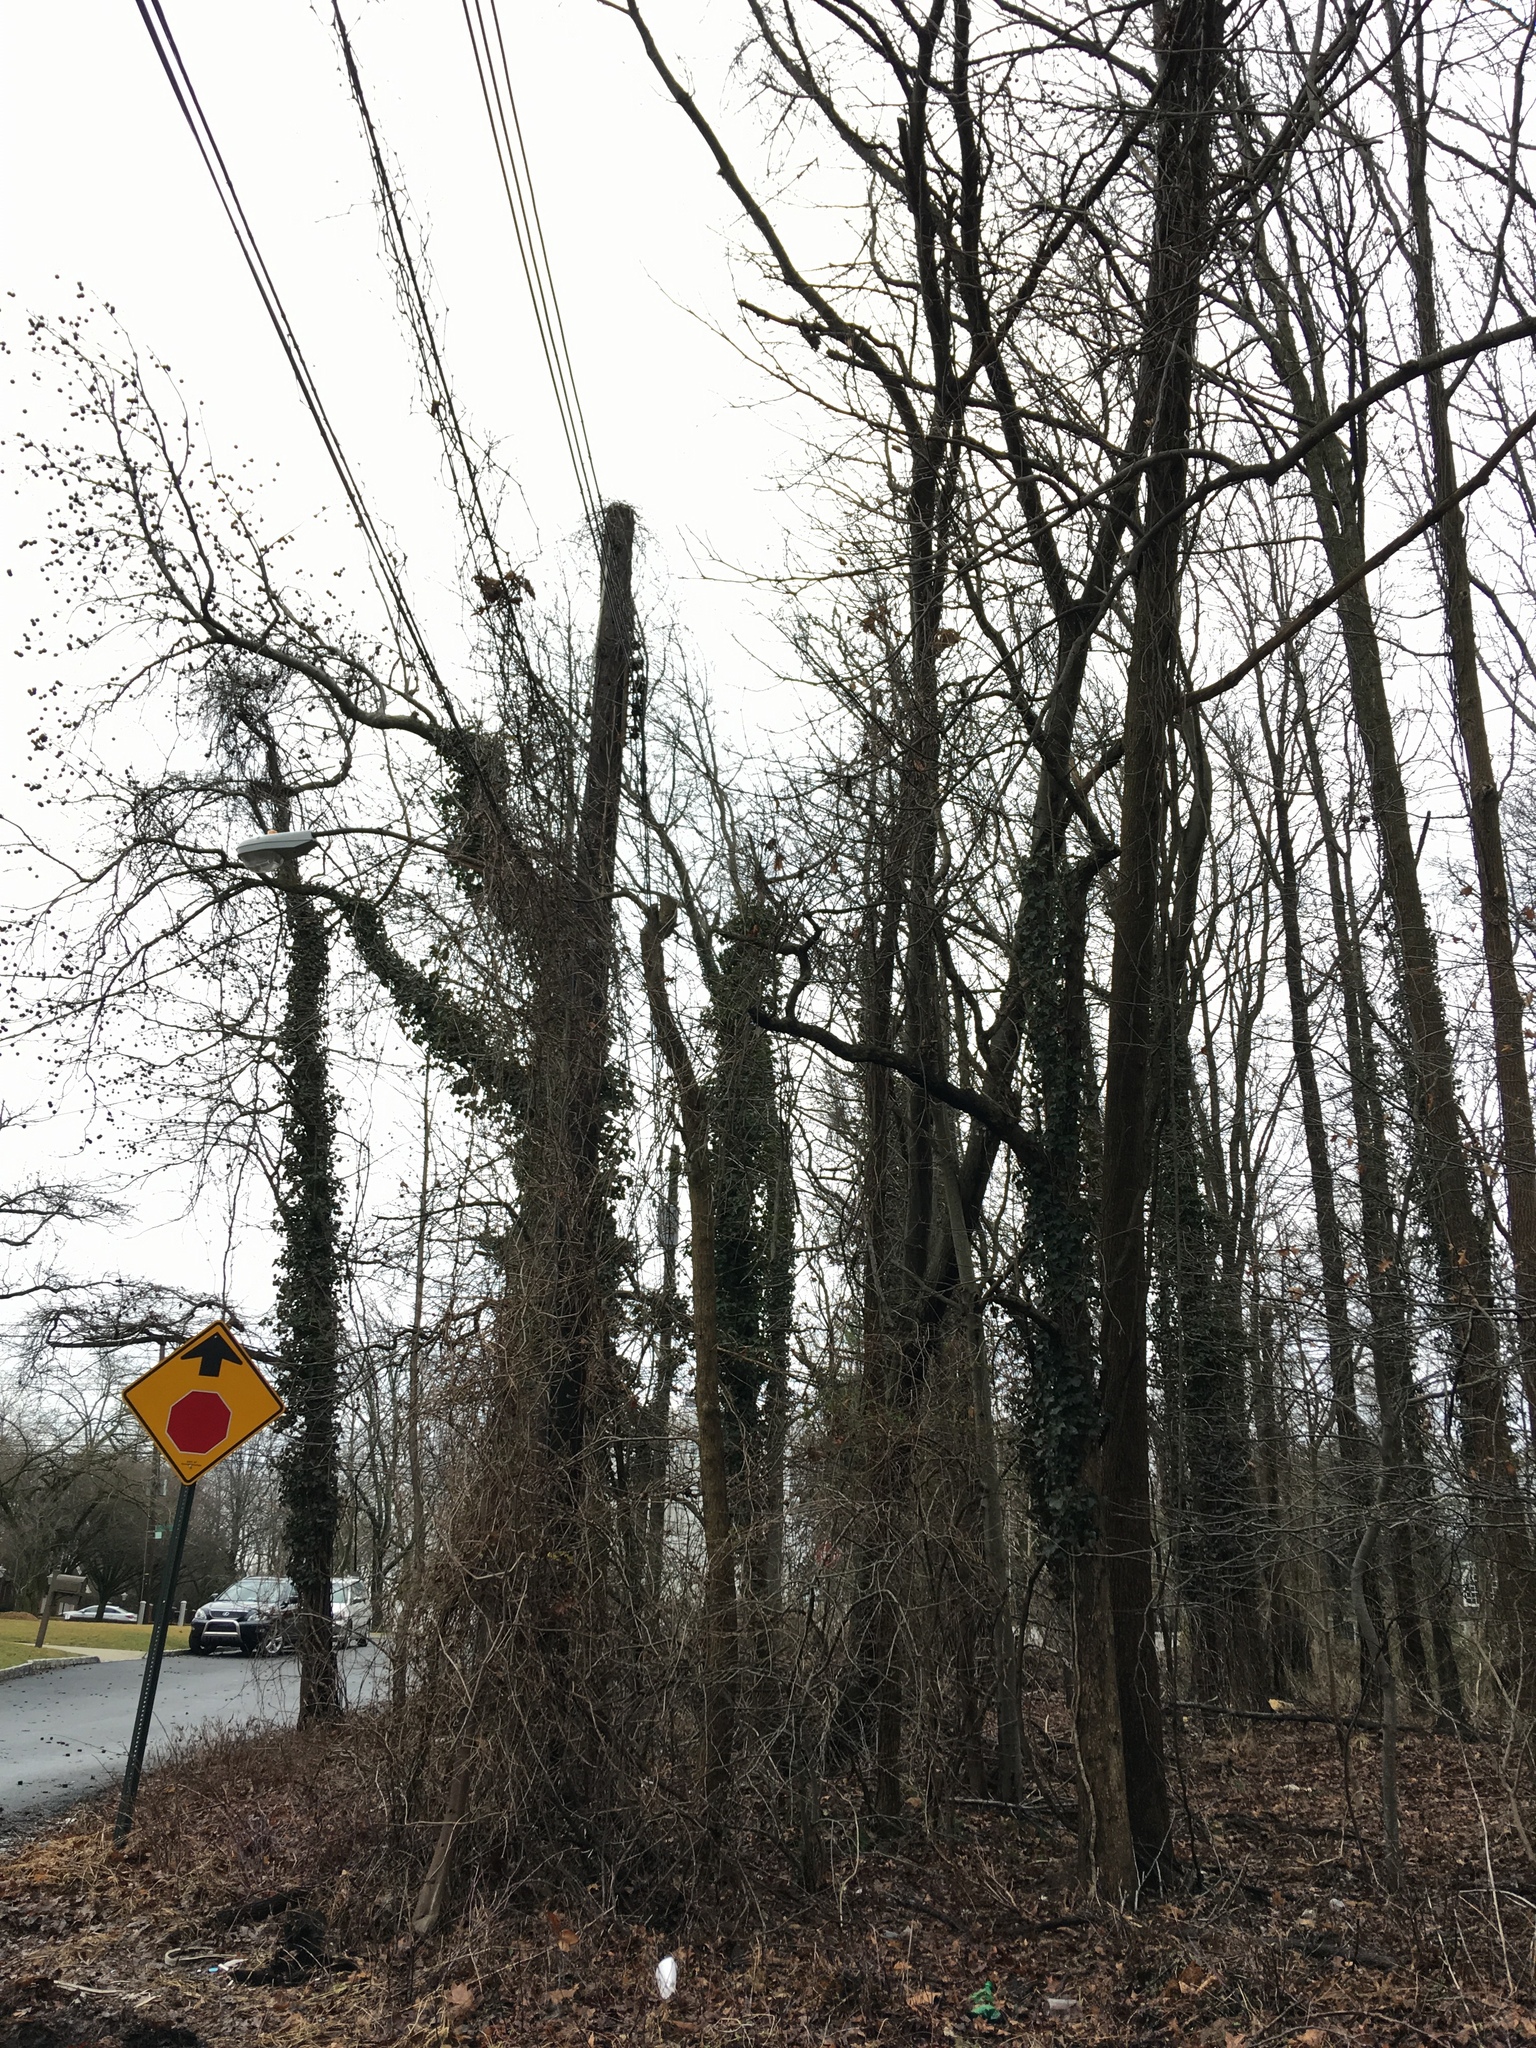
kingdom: Plantae
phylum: Tracheophyta
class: Magnoliopsida
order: Apiales
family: Araliaceae
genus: Hedera
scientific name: Hedera helix
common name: Ivy
